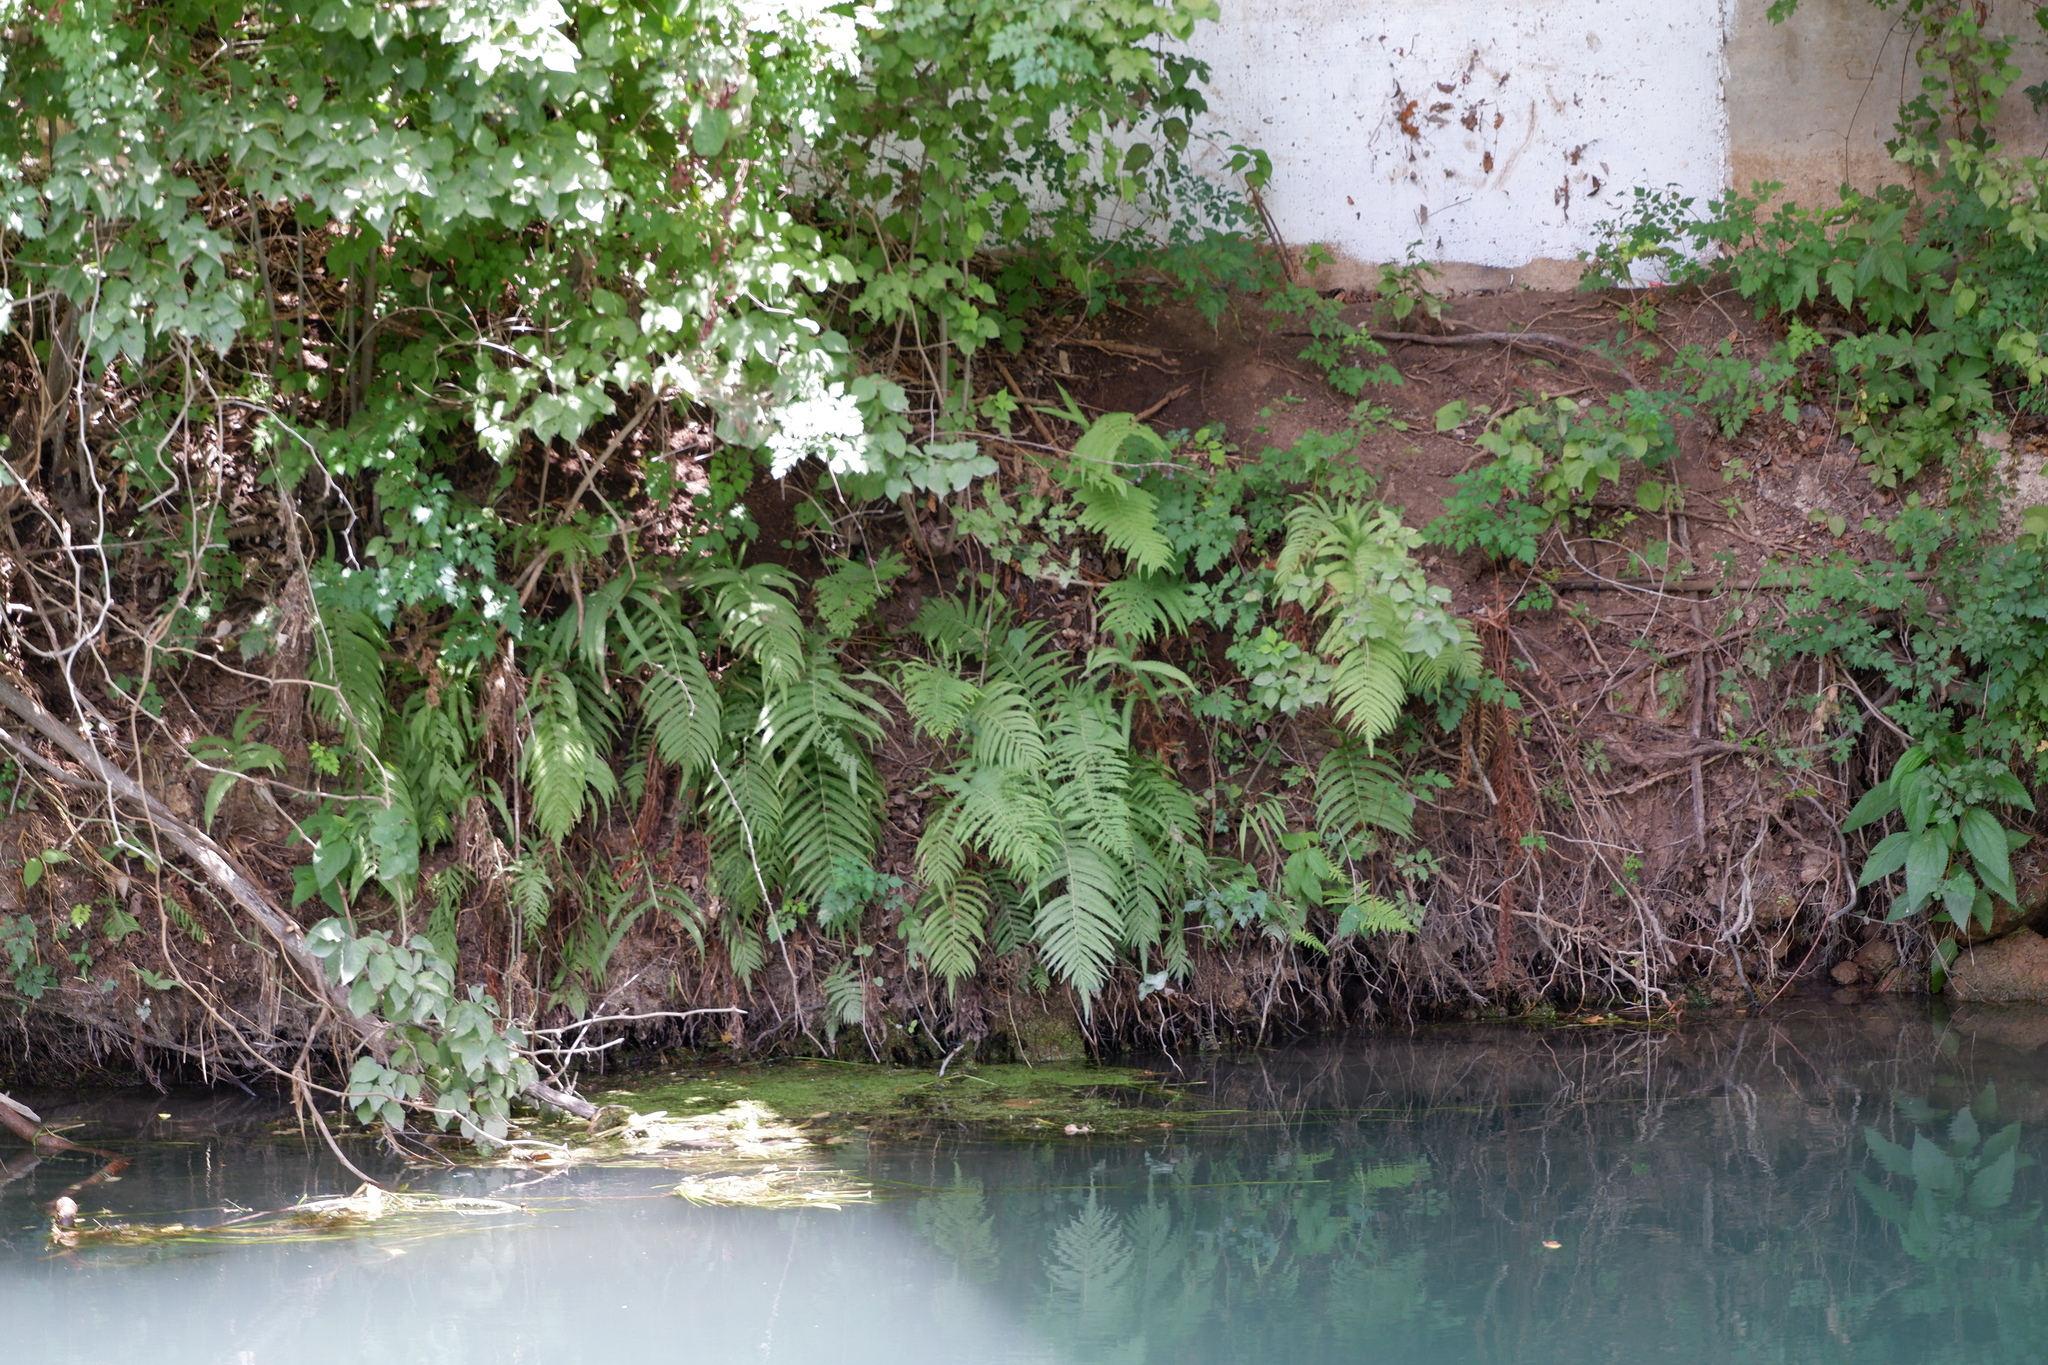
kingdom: Plantae
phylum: Tracheophyta
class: Polypodiopsida
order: Polypodiales
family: Thelypteridaceae
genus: Pelazoneuron
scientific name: Pelazoneuron ovatum
